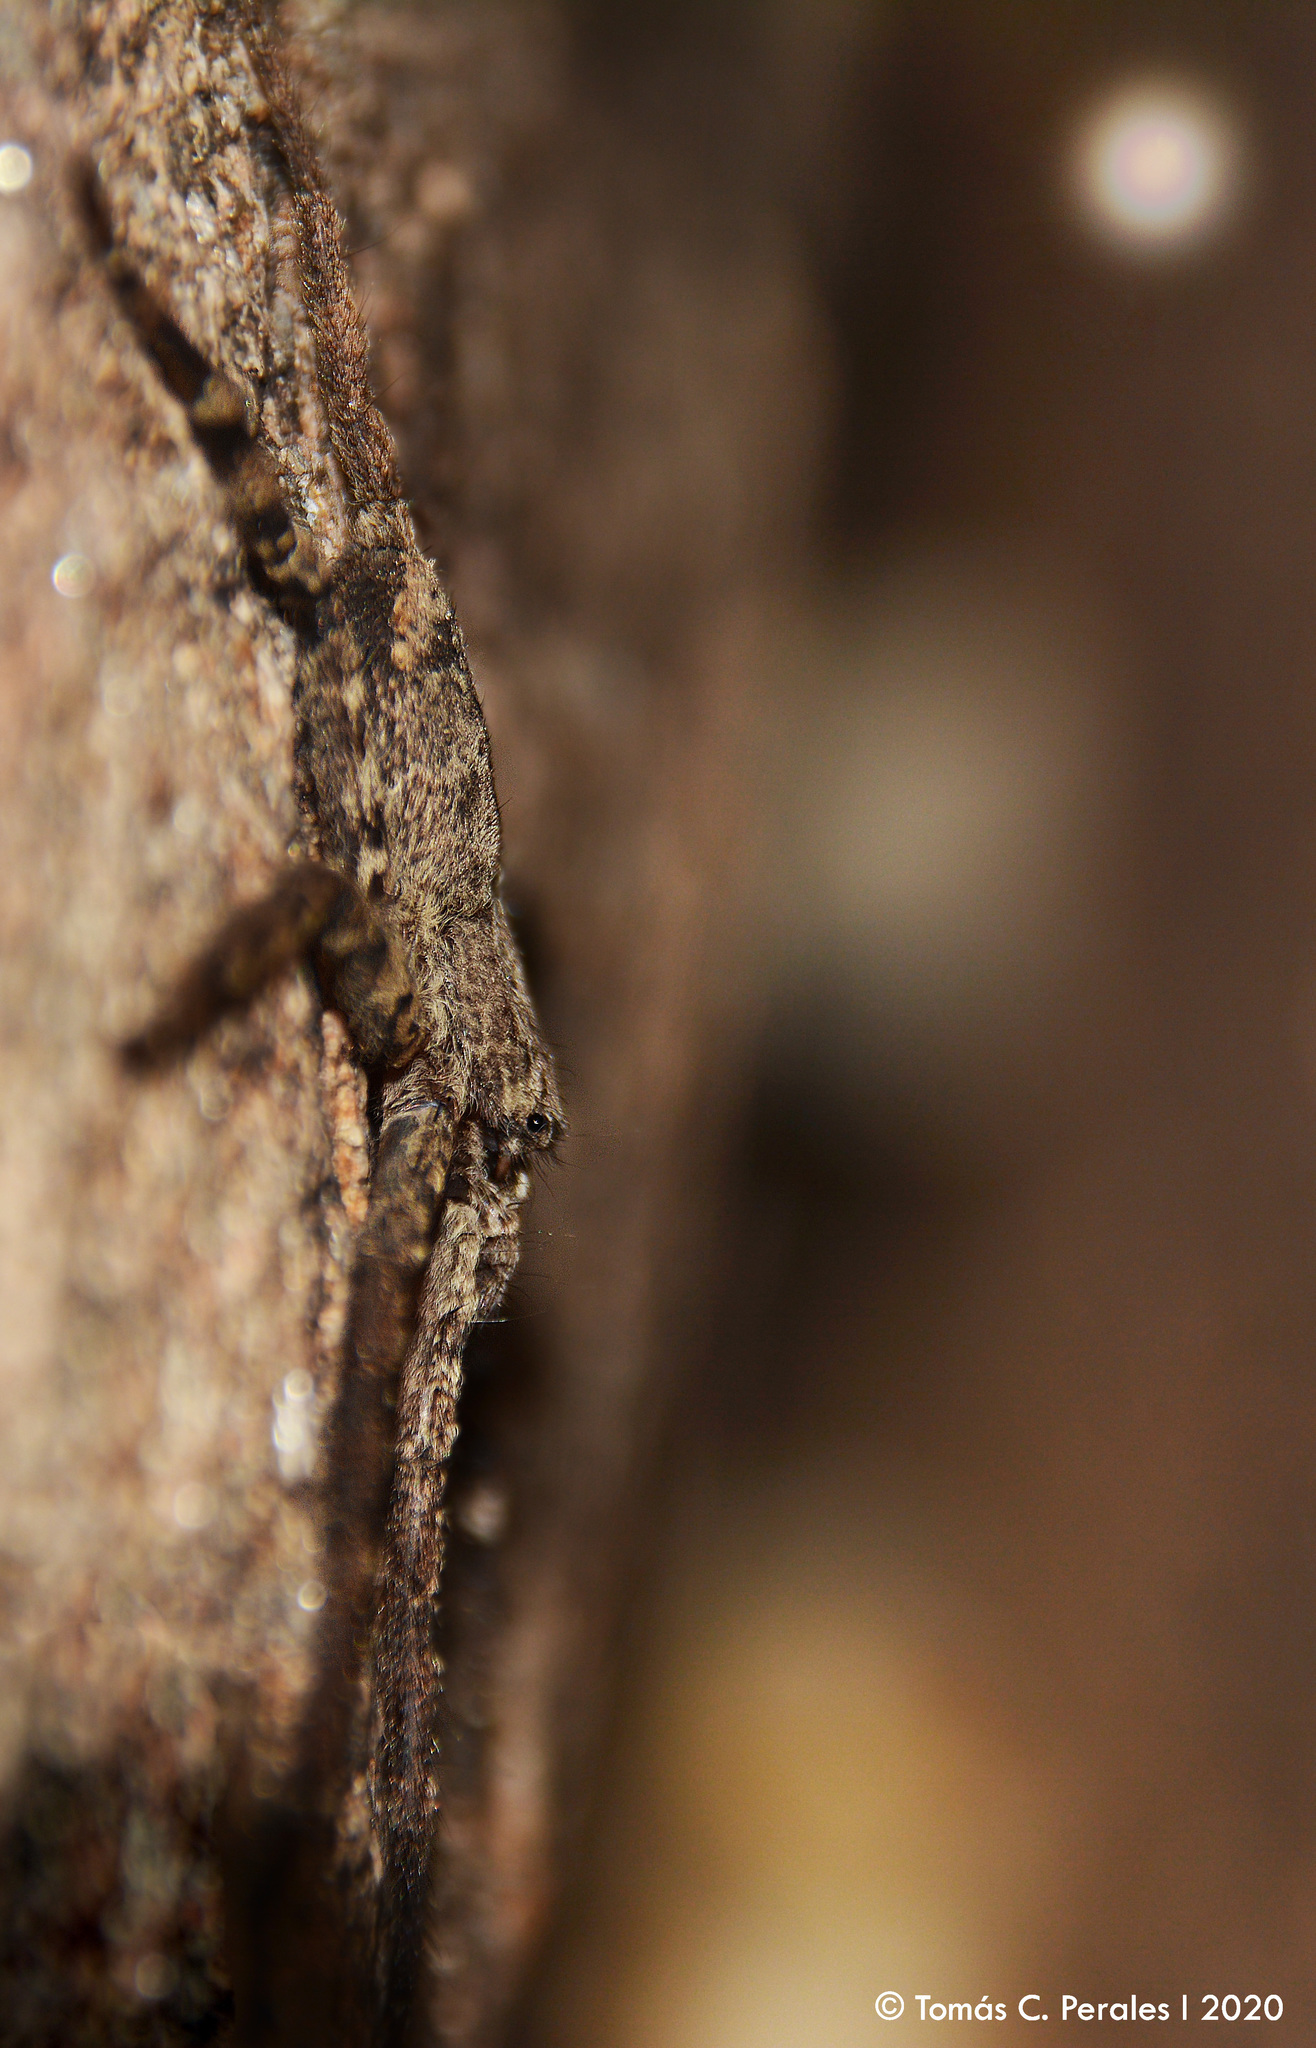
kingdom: Animalia
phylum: Arthropoda
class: Arachnida
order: Araneae
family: Selenopidae
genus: Selenops
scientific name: Selenops
